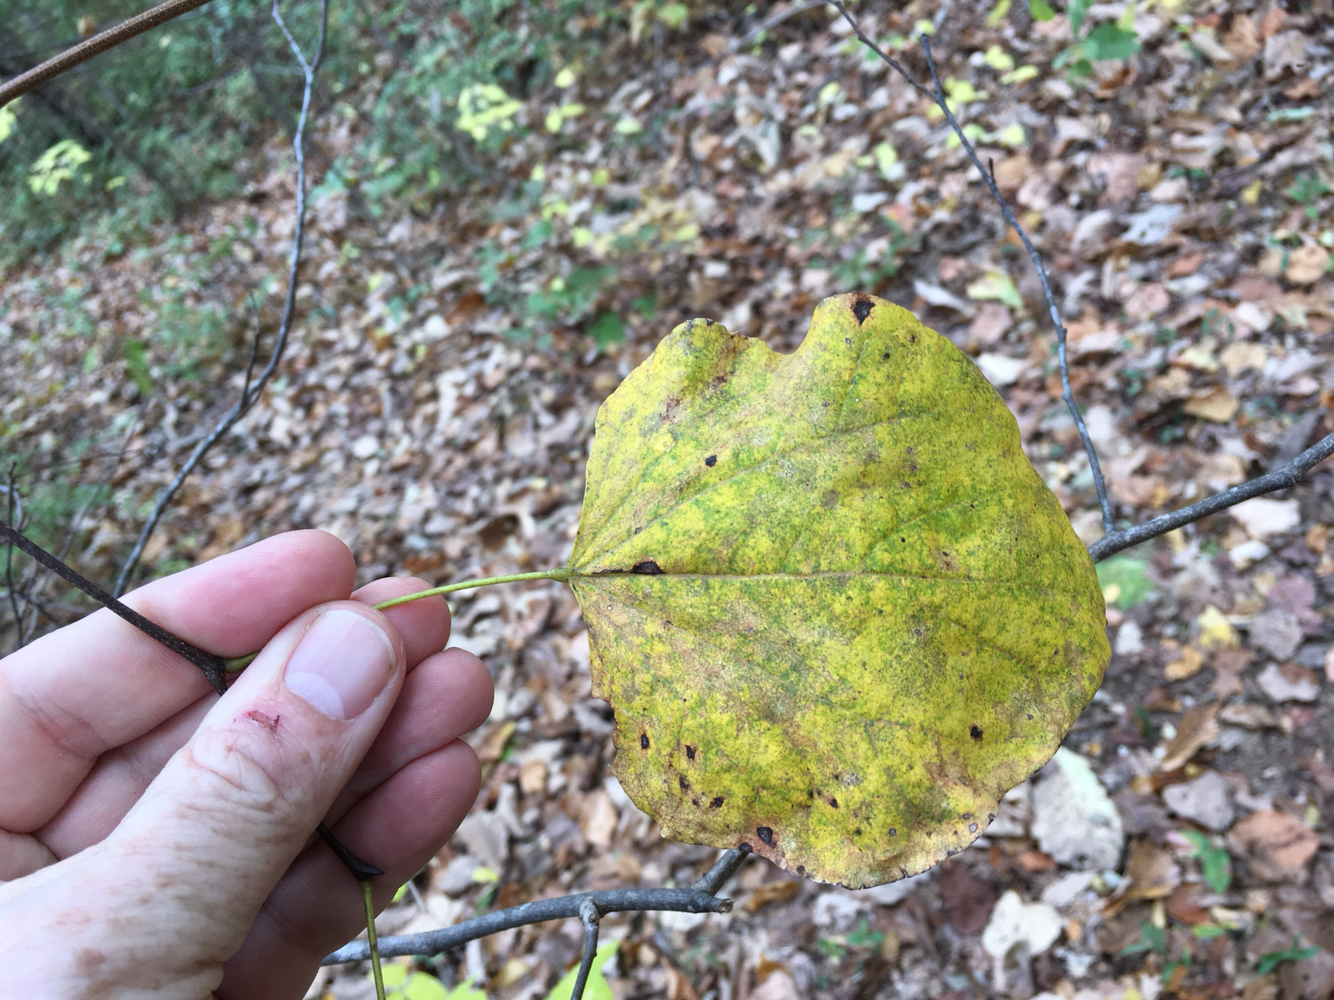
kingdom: Plantae
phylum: Tracheophyta
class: Magnoliopsida
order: Fabales
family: Fabaceae
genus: Cercis
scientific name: Cercis canadensis
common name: Eastern redbud
